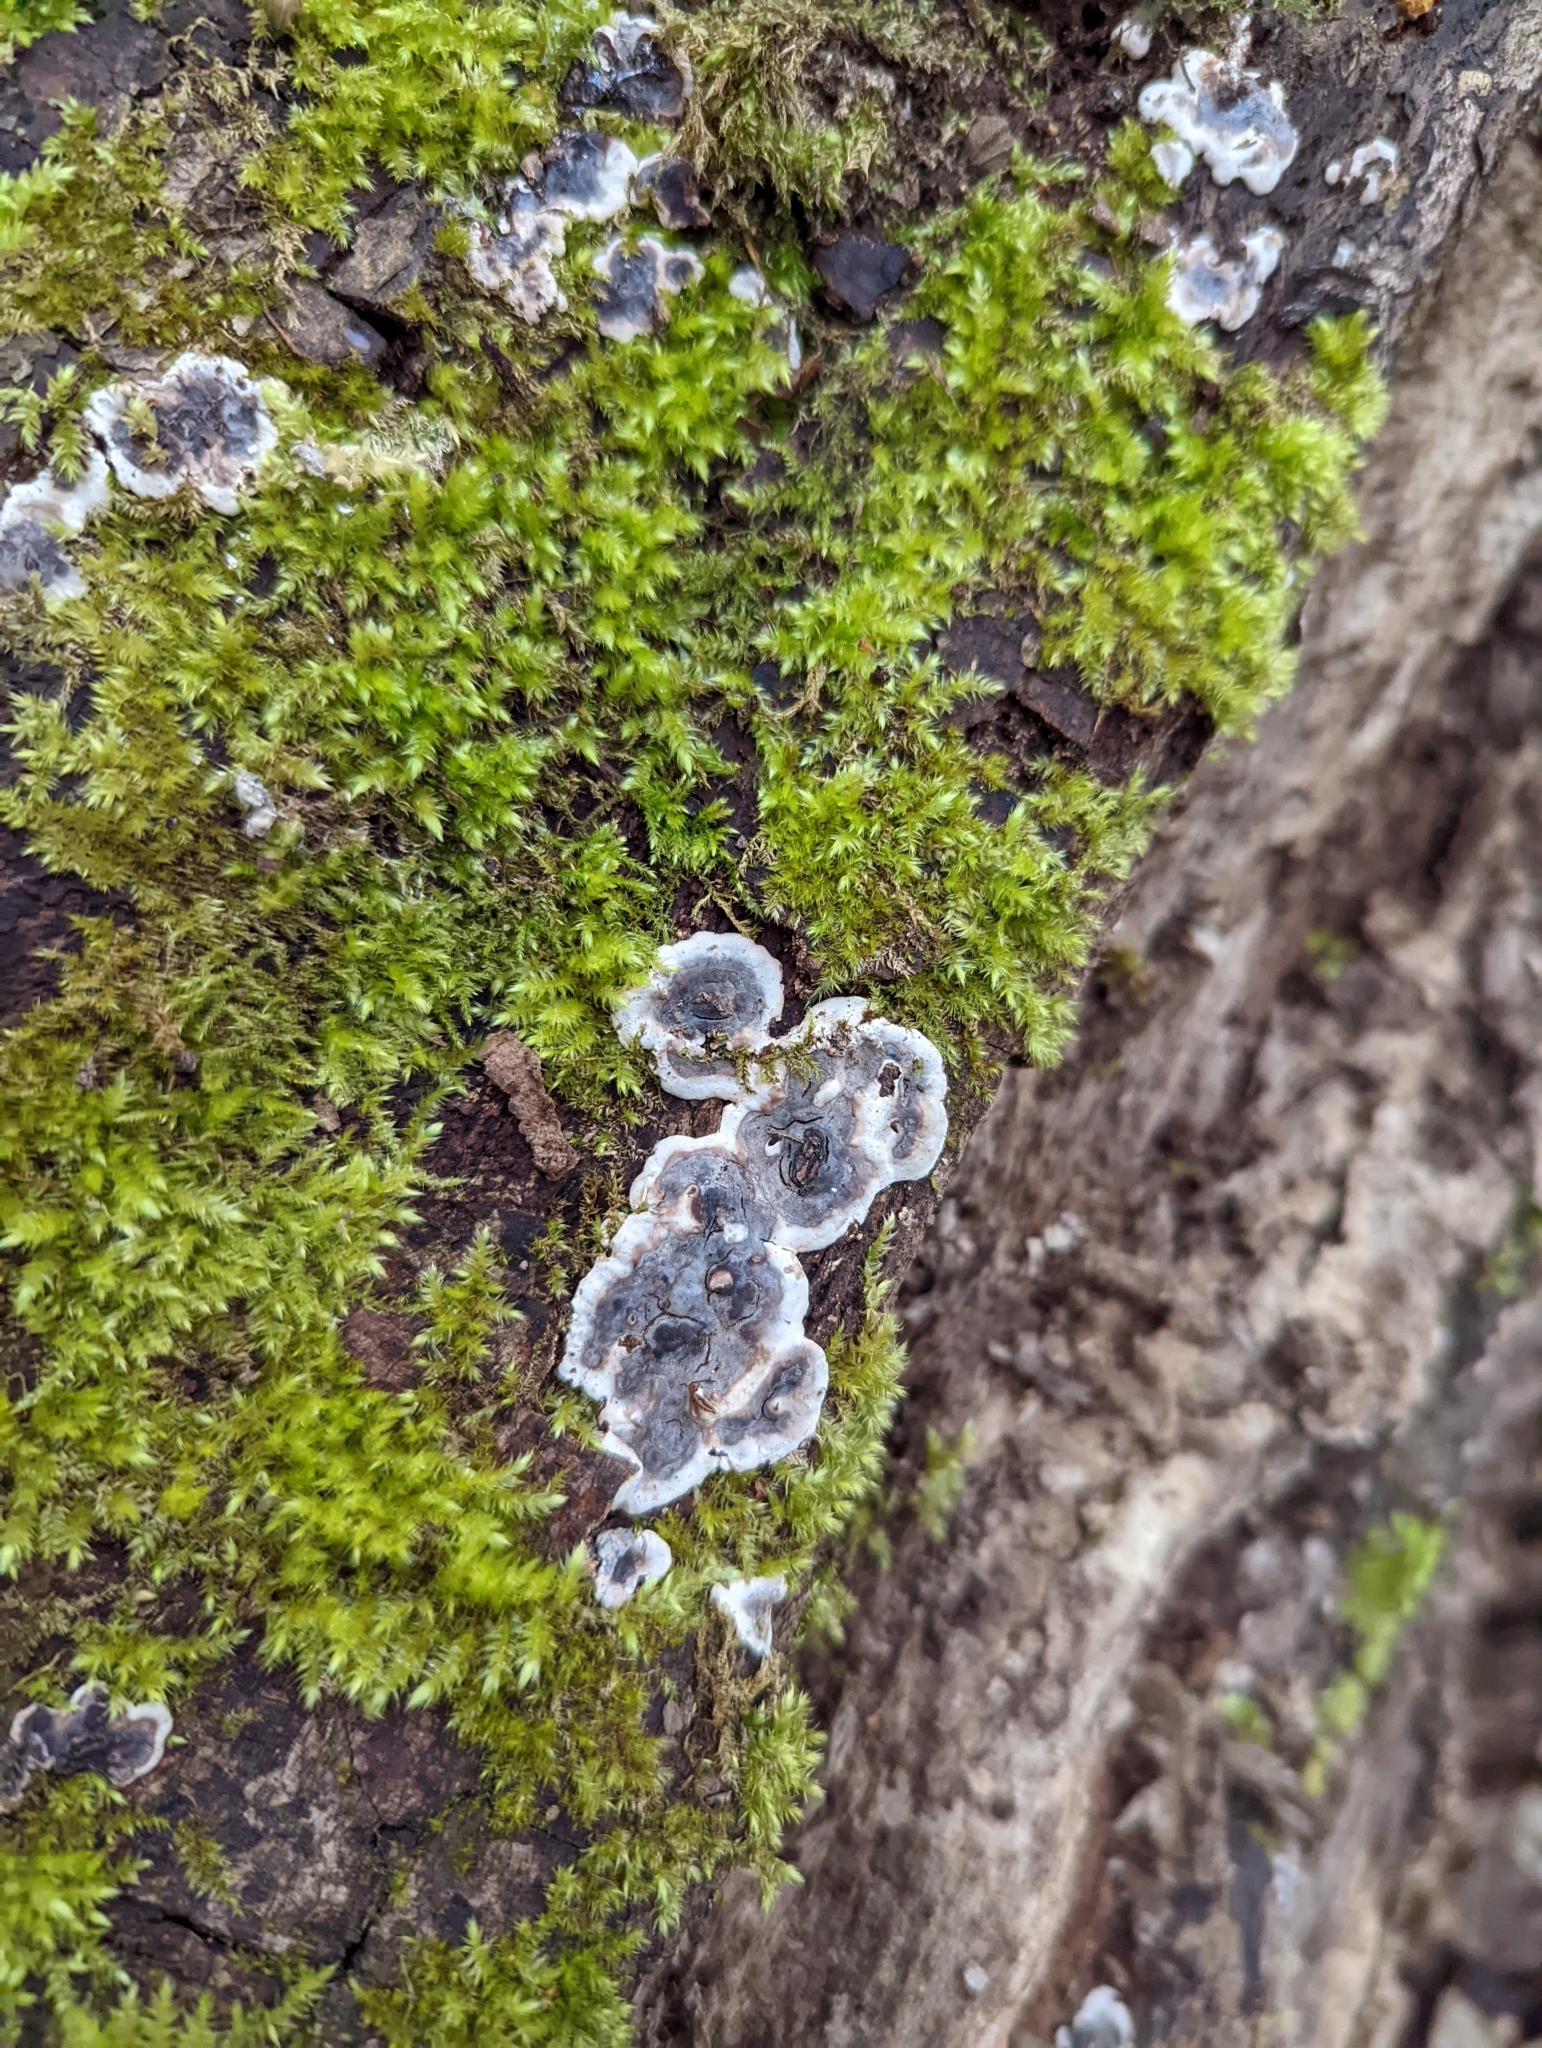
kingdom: Fungi
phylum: Ascomycota
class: Sordariomycetes
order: Xylariales
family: Xylariaceae
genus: Kretzschmaria
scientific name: Kretzschmaria deusta
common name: Brittle cinder
